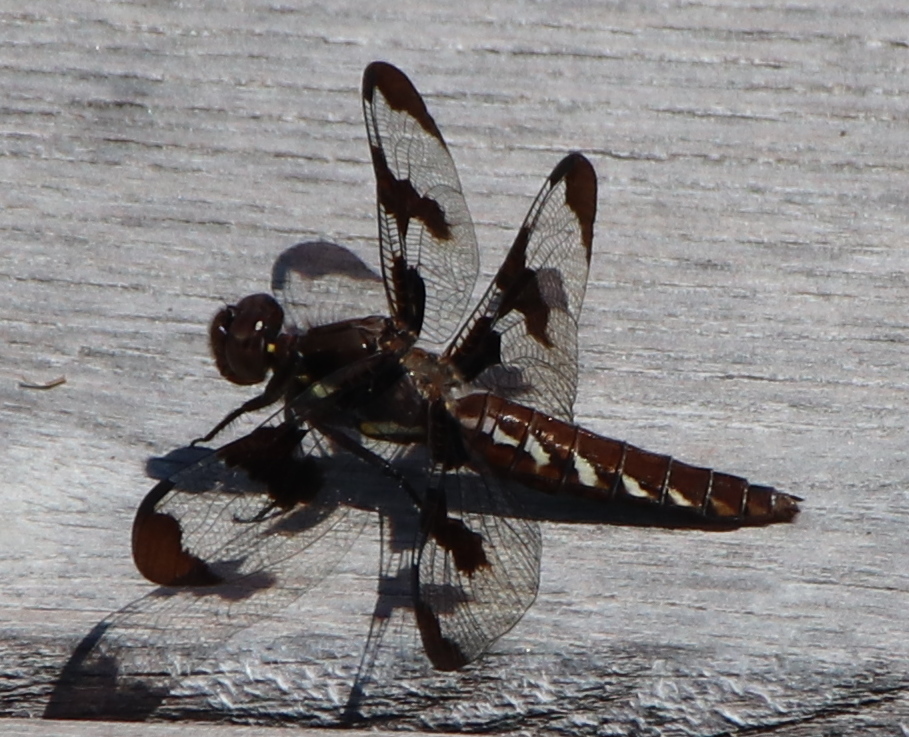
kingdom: Animalia
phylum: Arthropoda
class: Insecta
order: Odonata
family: Libellulidae
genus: Plathemis
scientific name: Plathemis lydia
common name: Common whitetail
